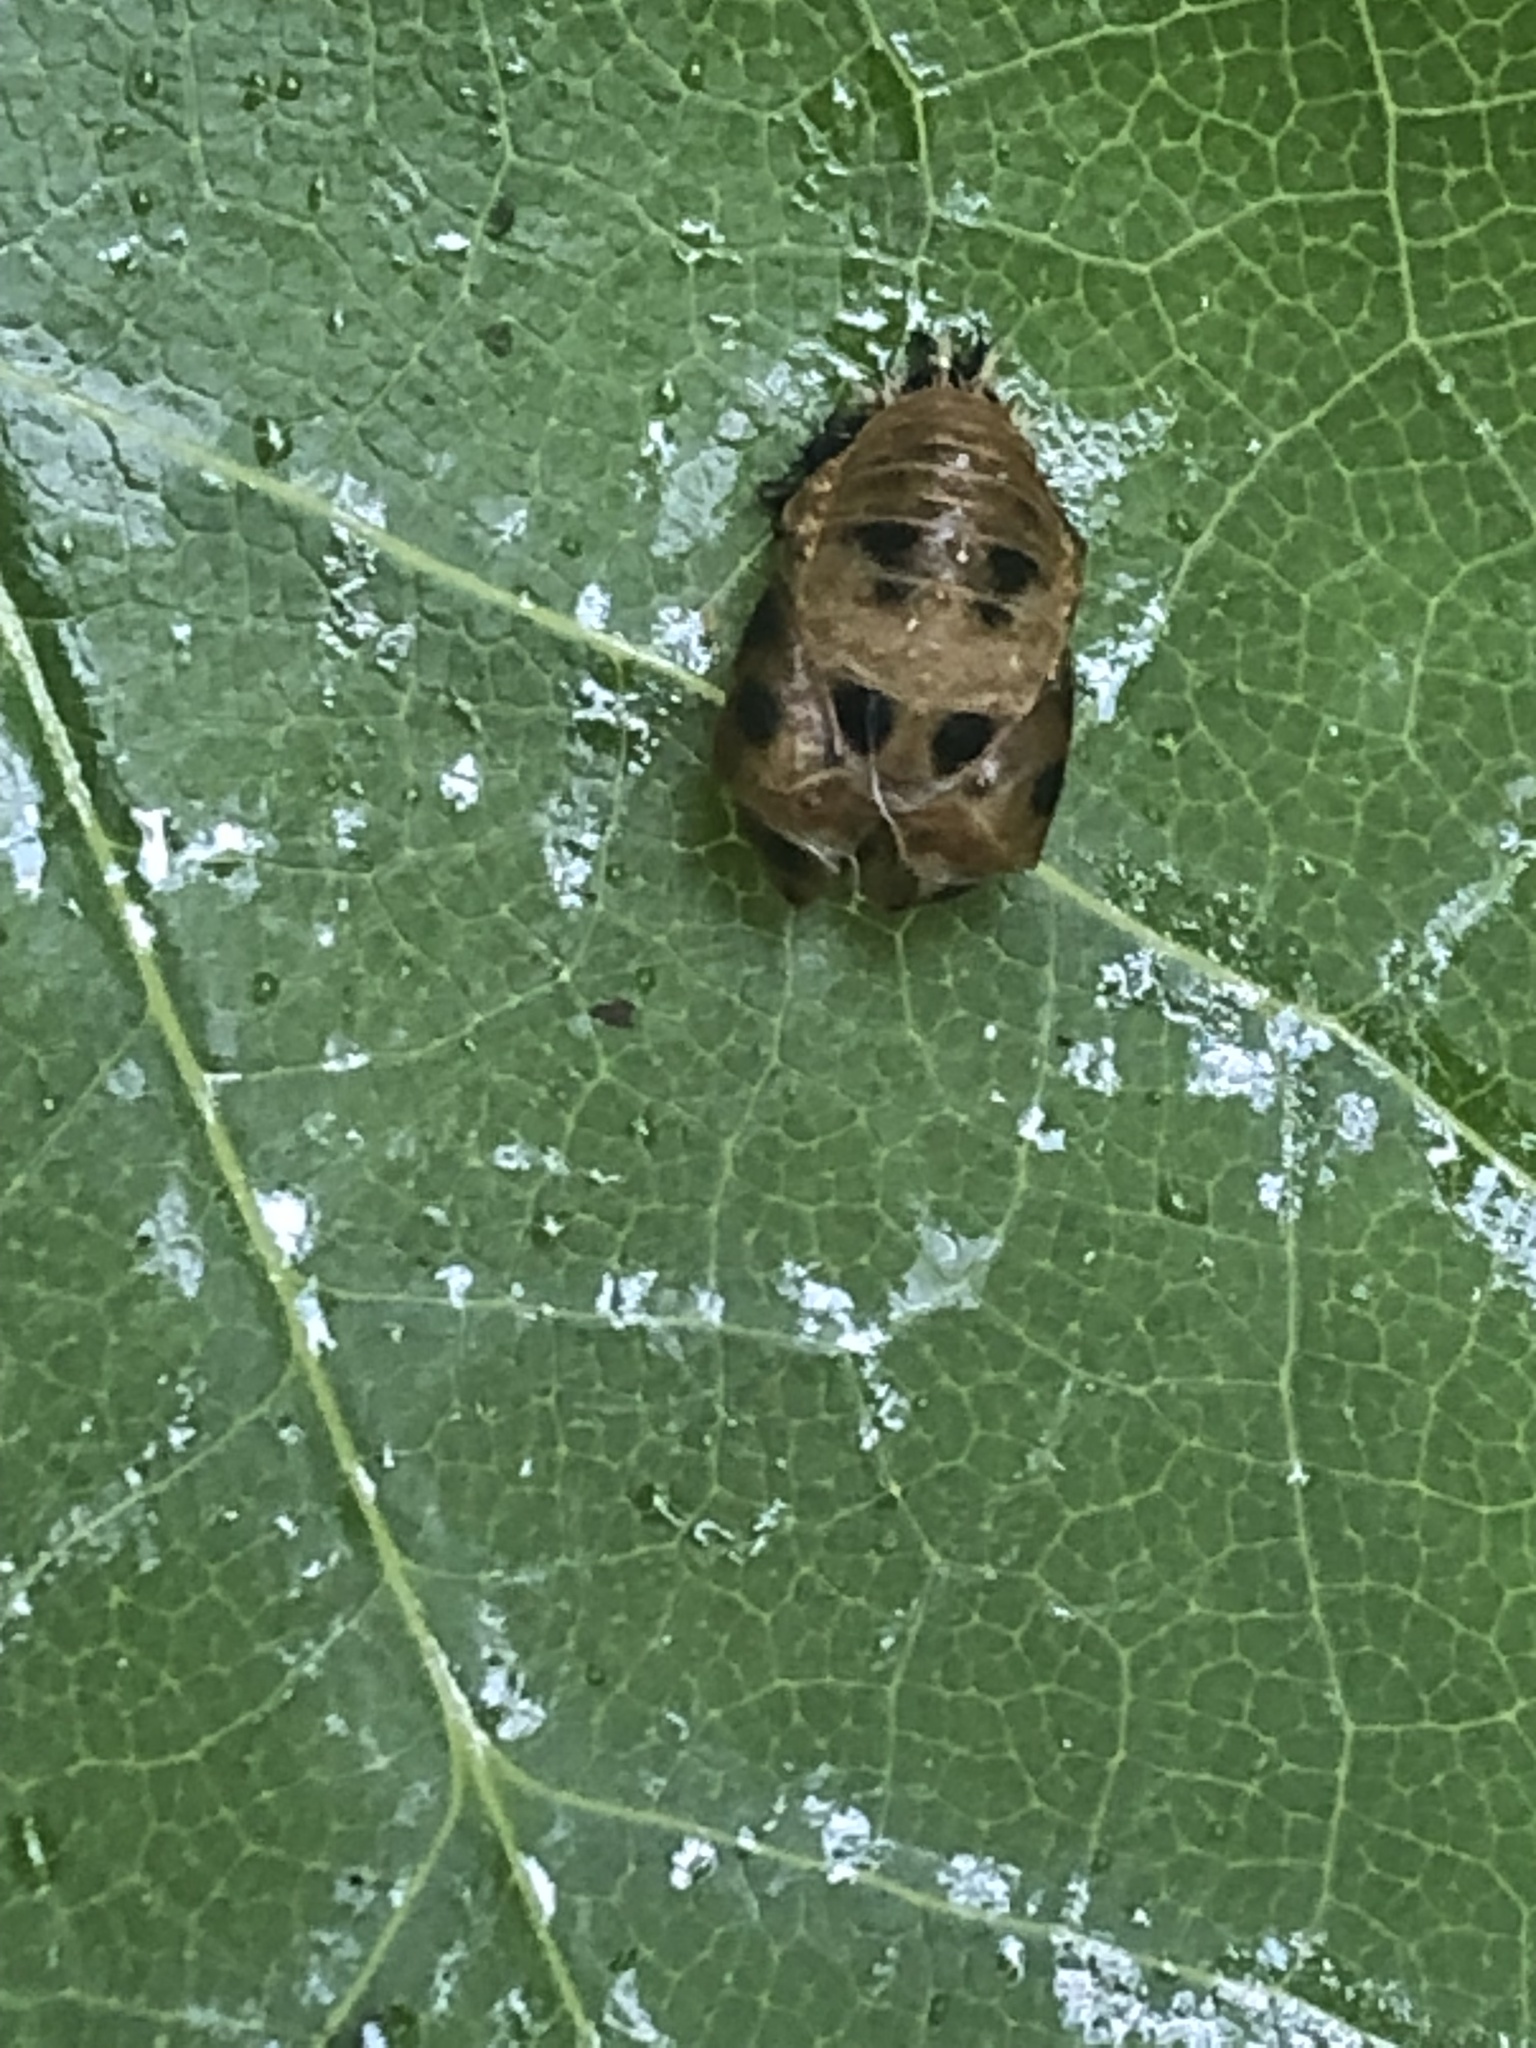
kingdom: Animalia
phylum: Arthropoda
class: Insecta
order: Coleoptera
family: Coccinellidae
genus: Harmonia
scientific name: Harmonia axyridis
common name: Harlequin ladybird
